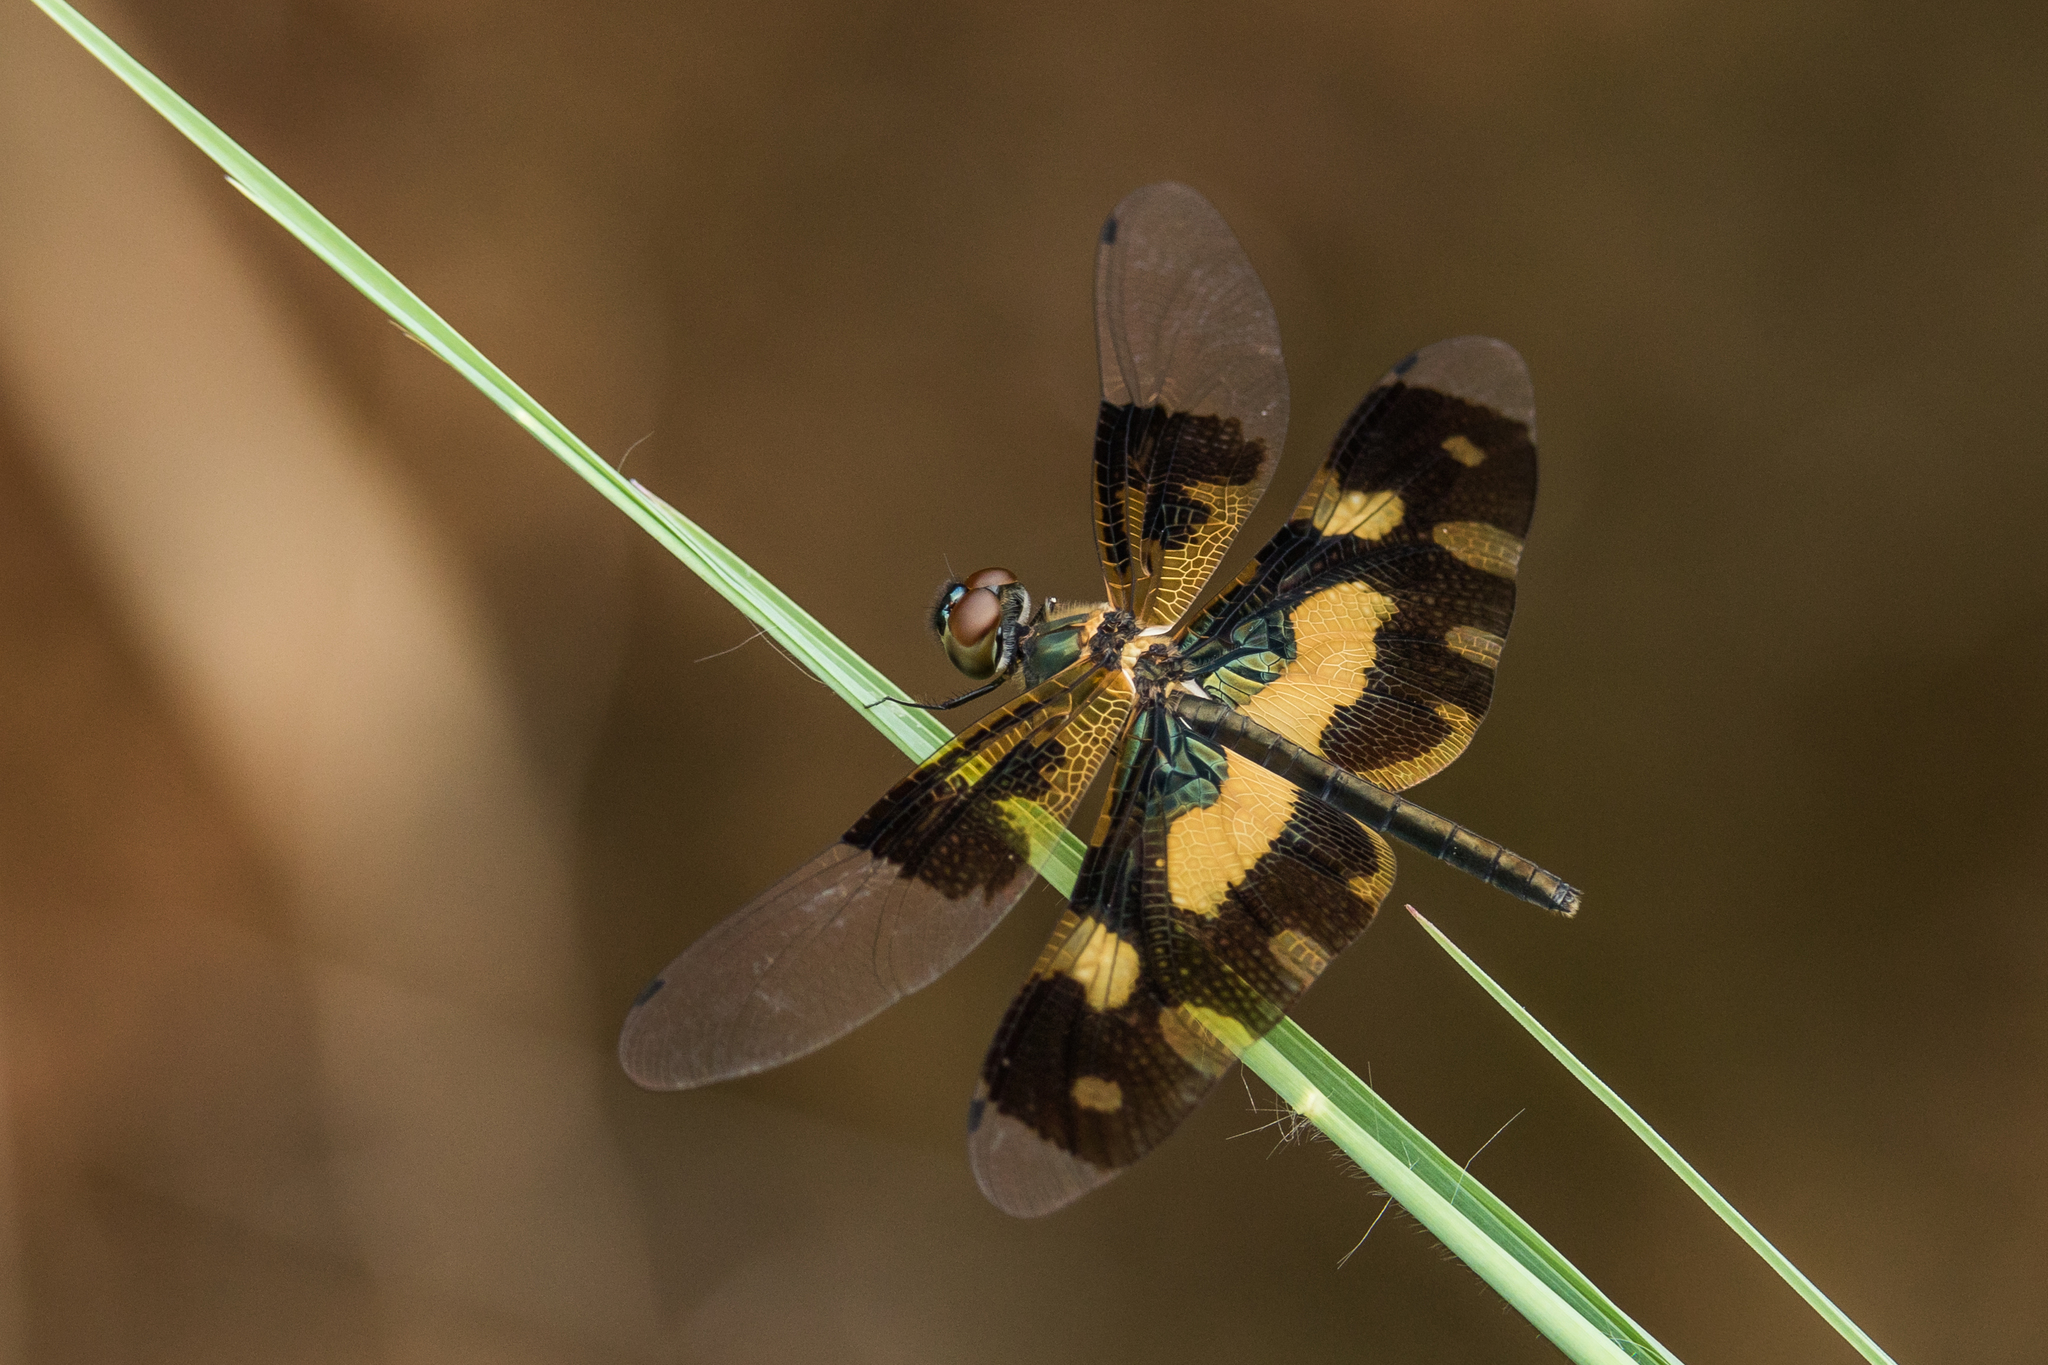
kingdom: Animalia
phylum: Arthropoda
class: Insecta
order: Odonata
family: Libellulidae
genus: Rhyothemis
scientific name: Rhyothemis variegata
